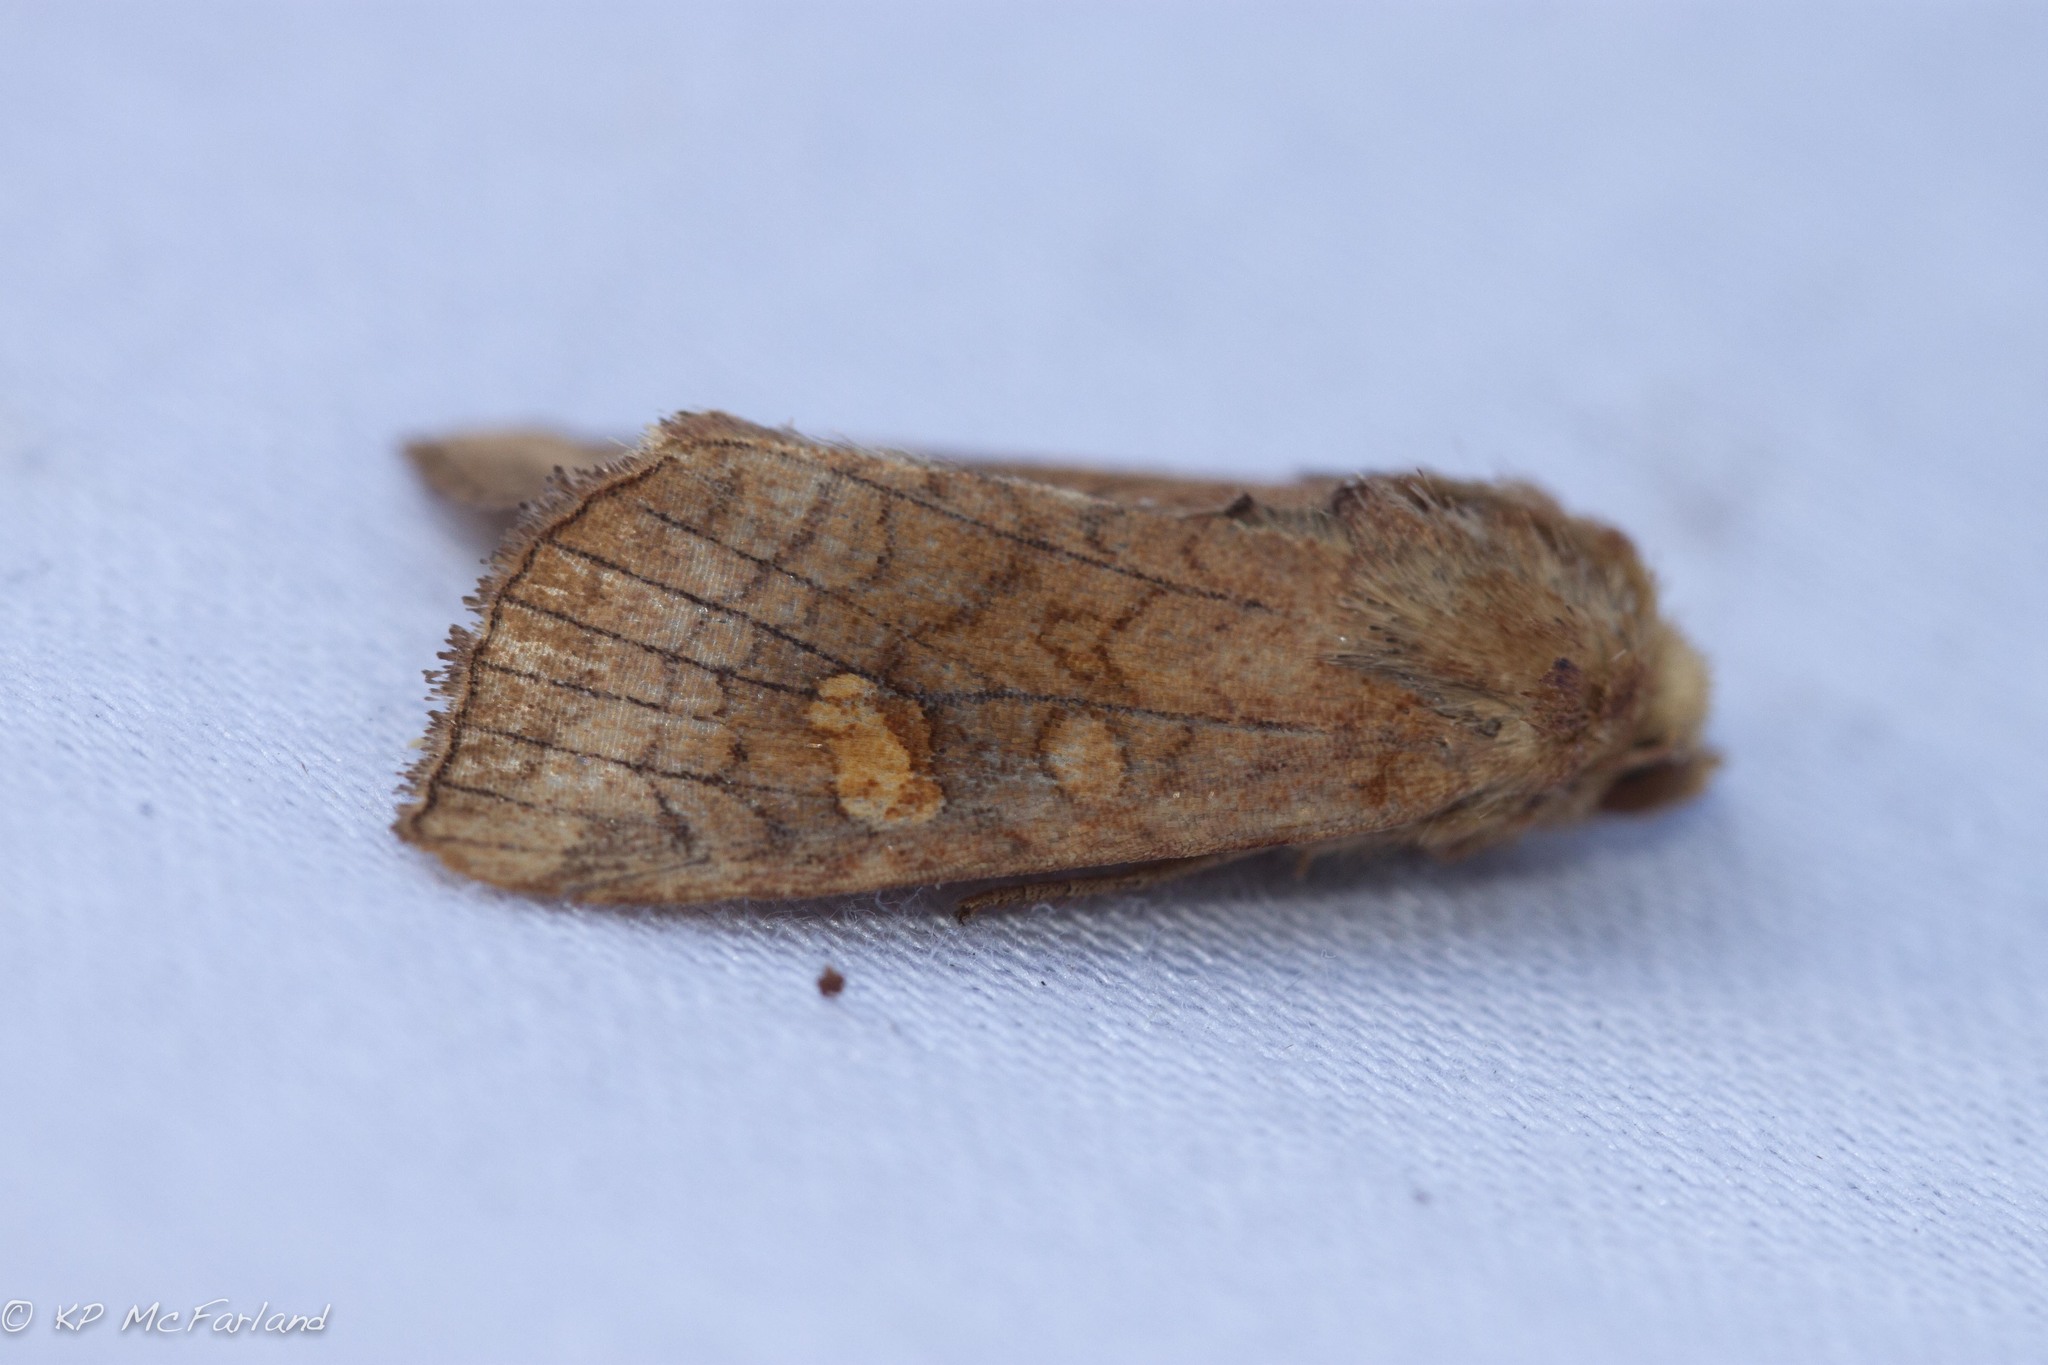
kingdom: Animalia
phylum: Arthropoda
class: Insecta
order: Lepidoptera
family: Noctuidae
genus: Amphipoea
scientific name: Amphipoea americana
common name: American ear moth
